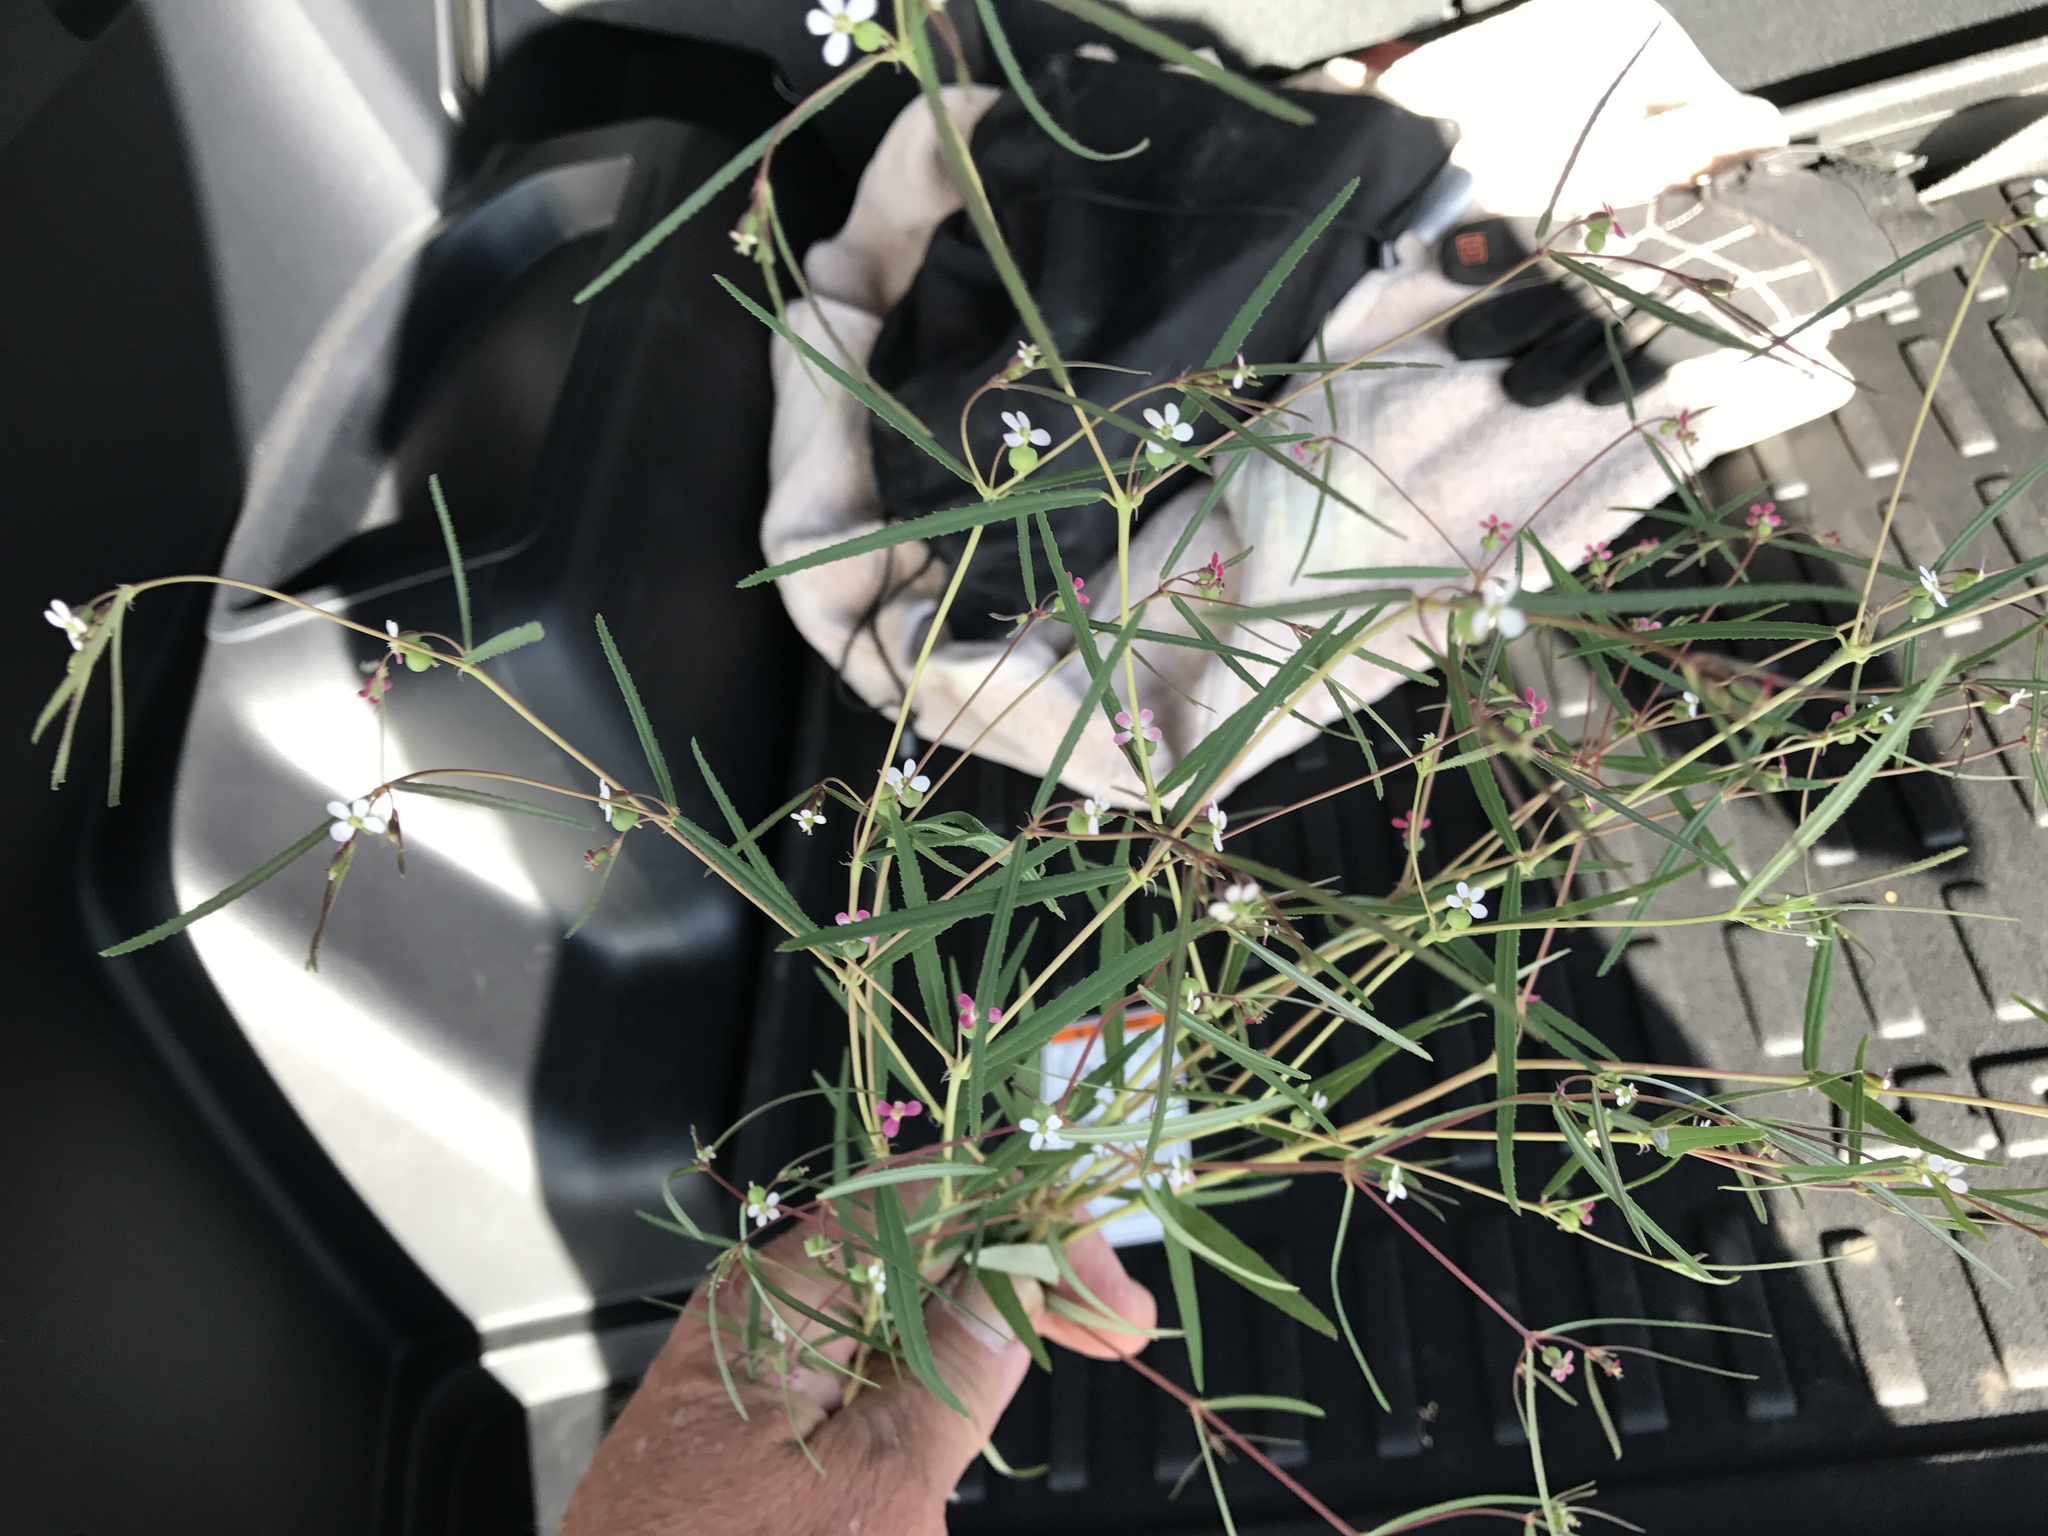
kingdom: Plantae
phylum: Tracheophyta
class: Magnoliopsida
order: Malpighiales
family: Euphorbiaceae
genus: Euphorbia
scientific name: Euphorbia florida
